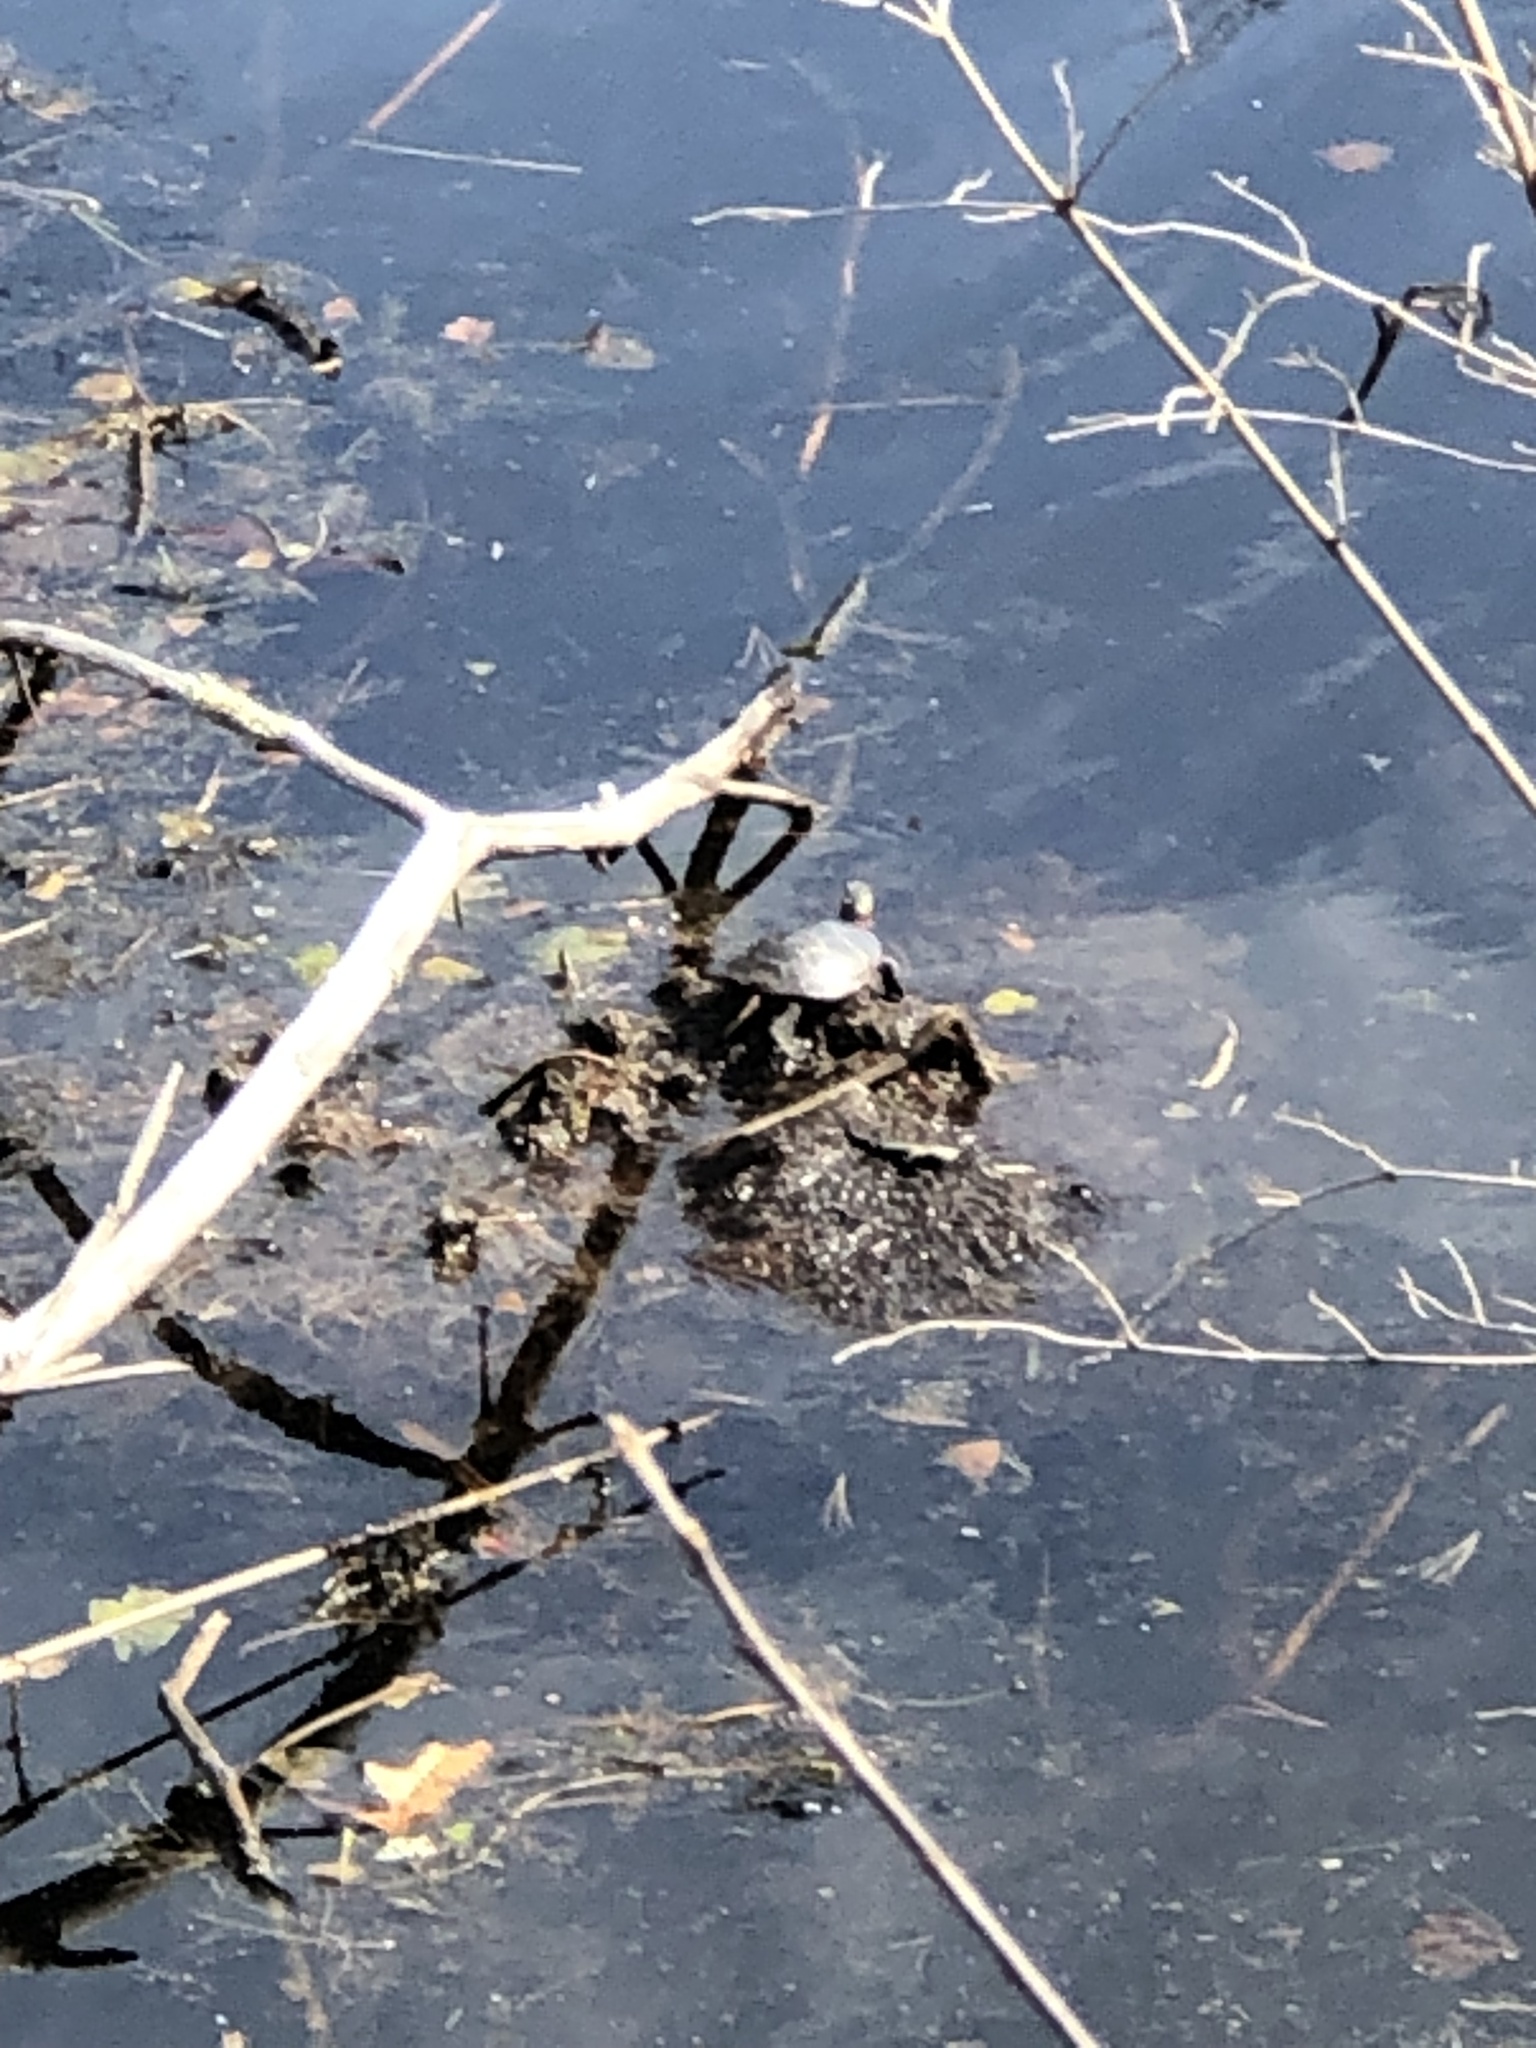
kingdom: Animalia
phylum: Chordata
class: Testudines
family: Emydidae
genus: Chrysemys
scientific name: Chrysemys picta
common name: Painted turtle
